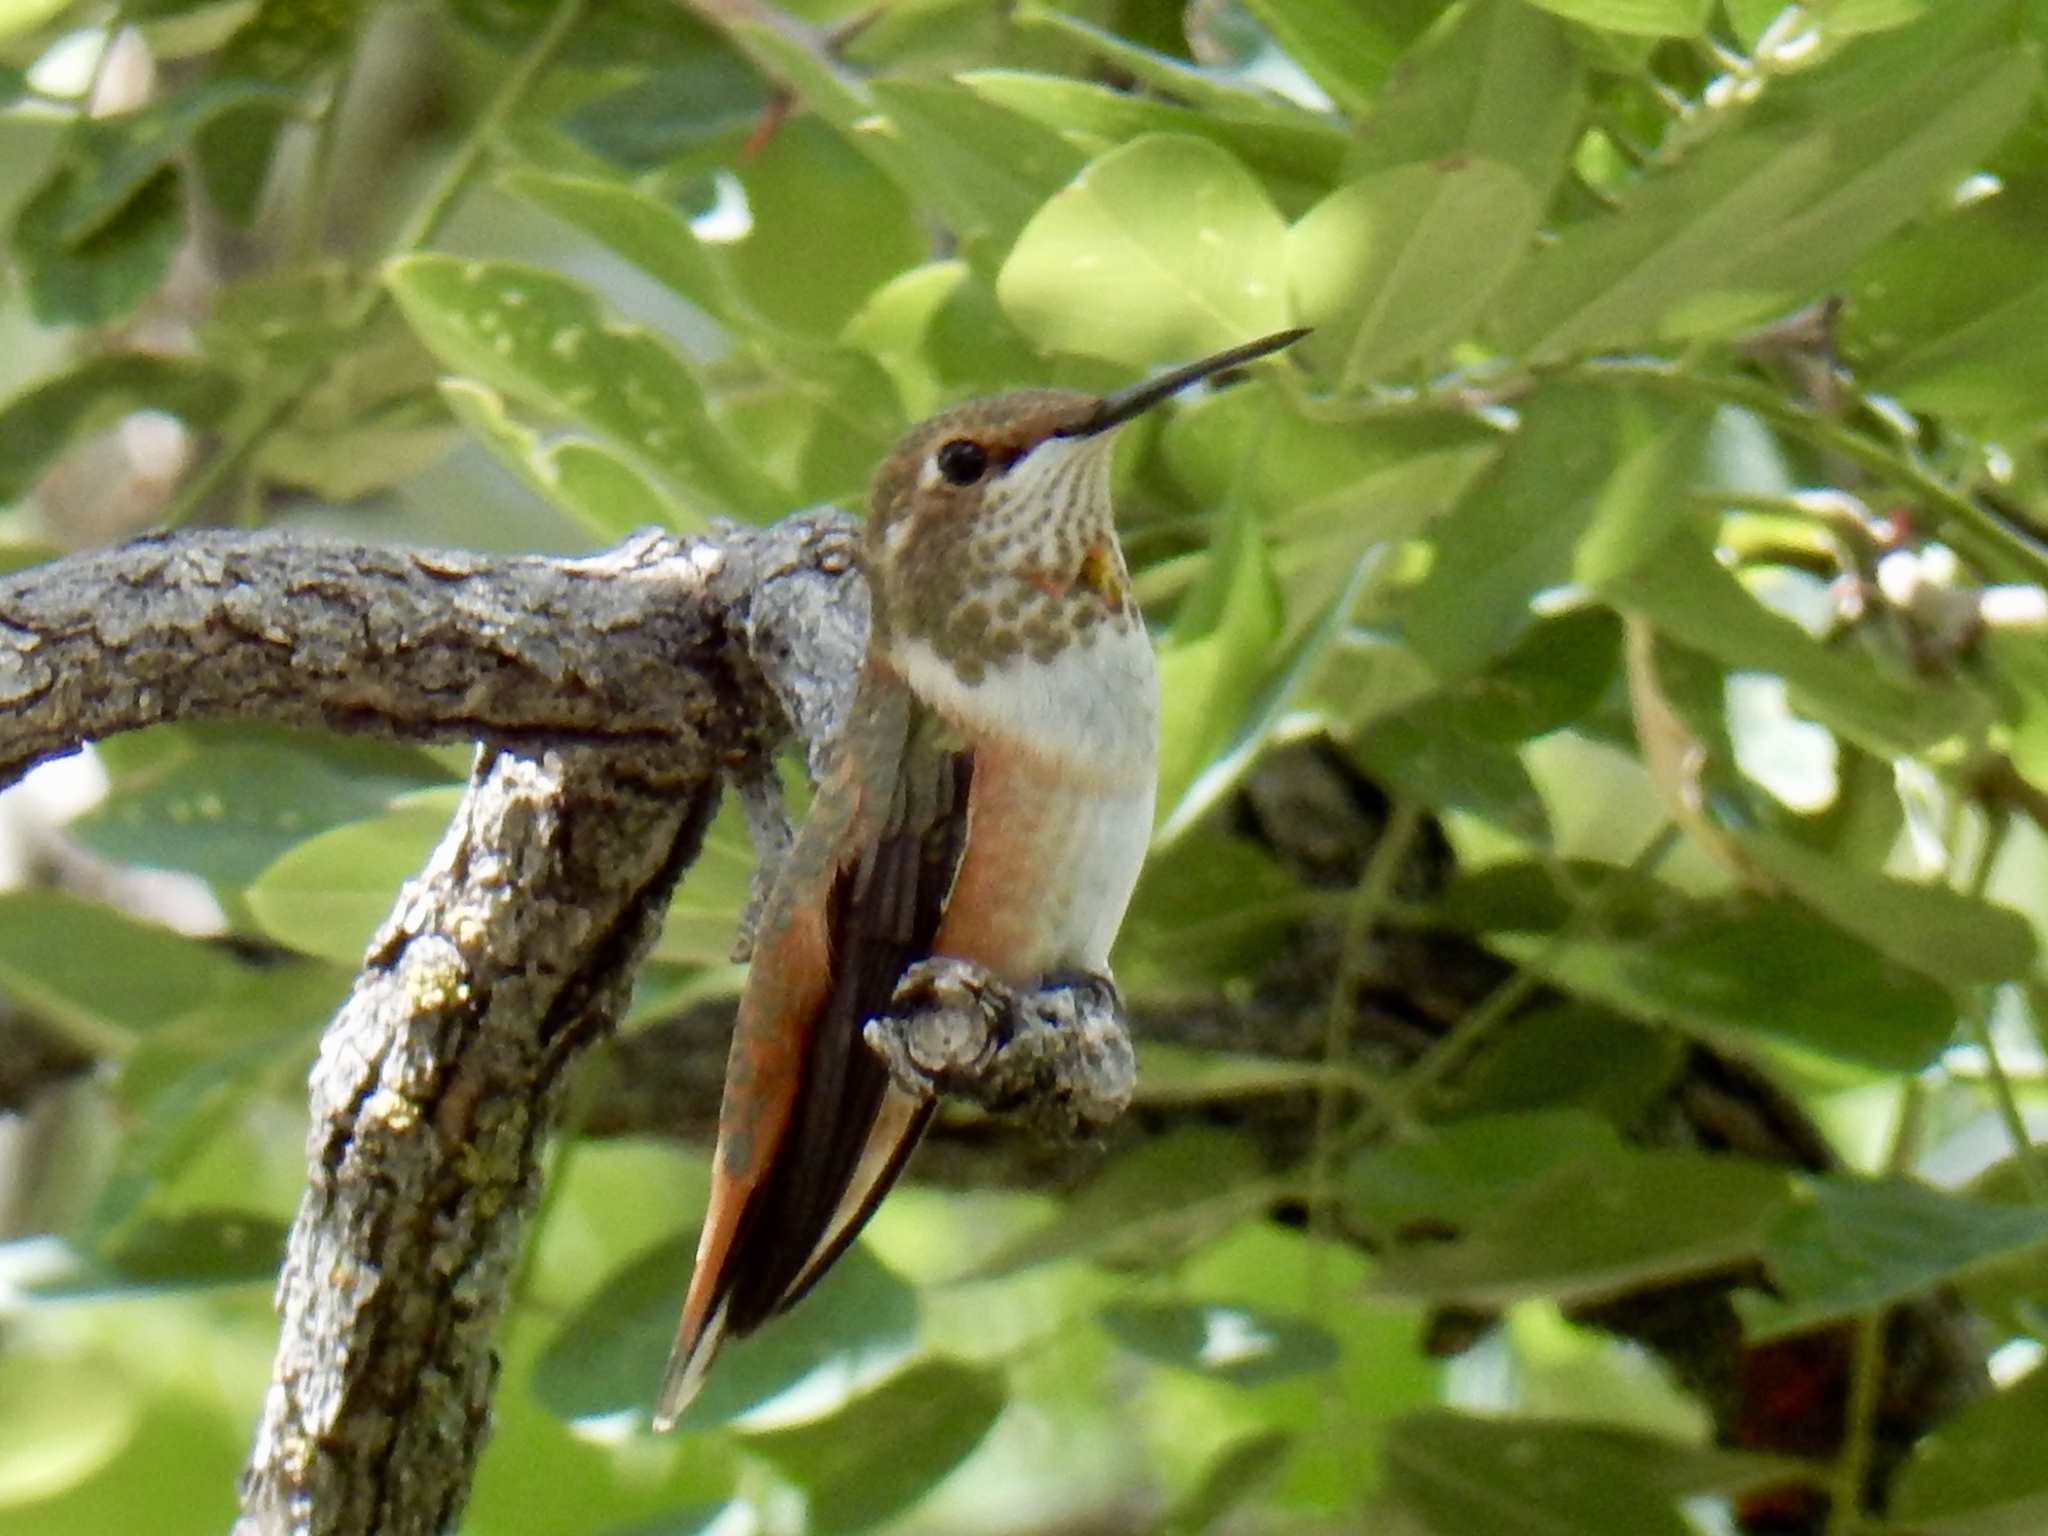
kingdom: Animalia
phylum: Chordata
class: Aves
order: Apodiformes
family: Trochilidae
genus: Selasphorus
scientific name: Selasphorus rufus
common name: Rufous hummingbird
